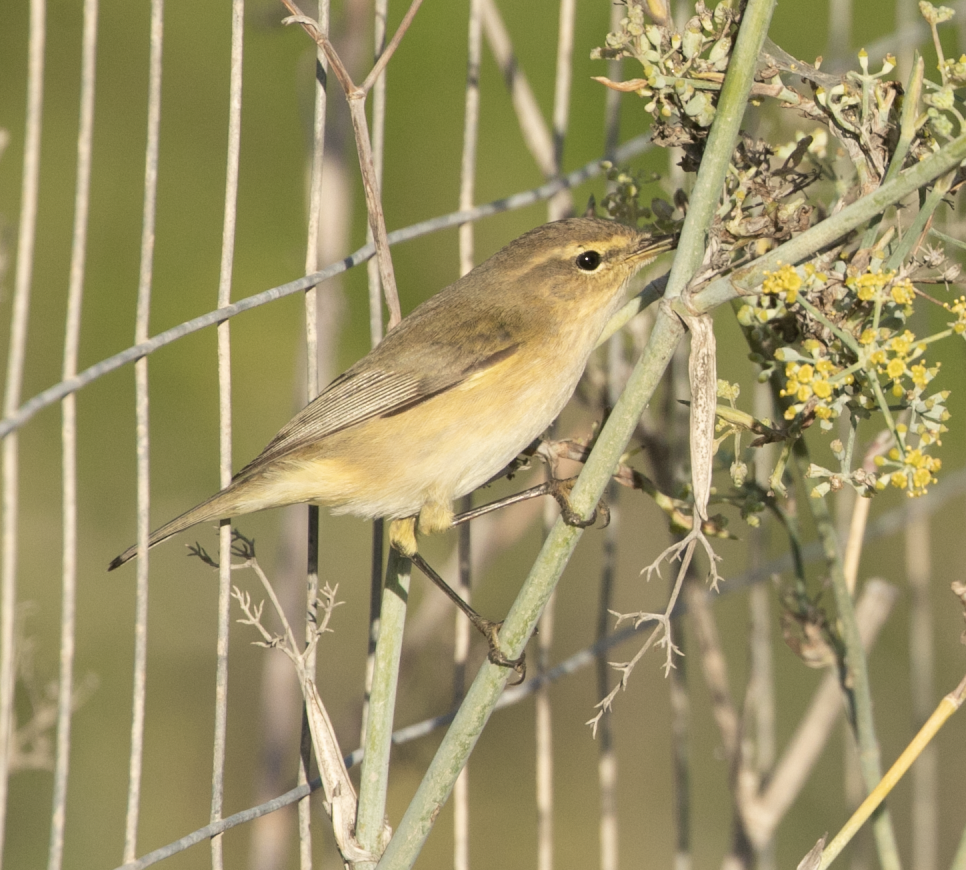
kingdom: Animalia
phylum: Chordata
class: Aves
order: Passeriformes
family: Phylloscopidae
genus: Phylloscopus
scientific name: Phylloscopus collybita
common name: Common chiffchaff
